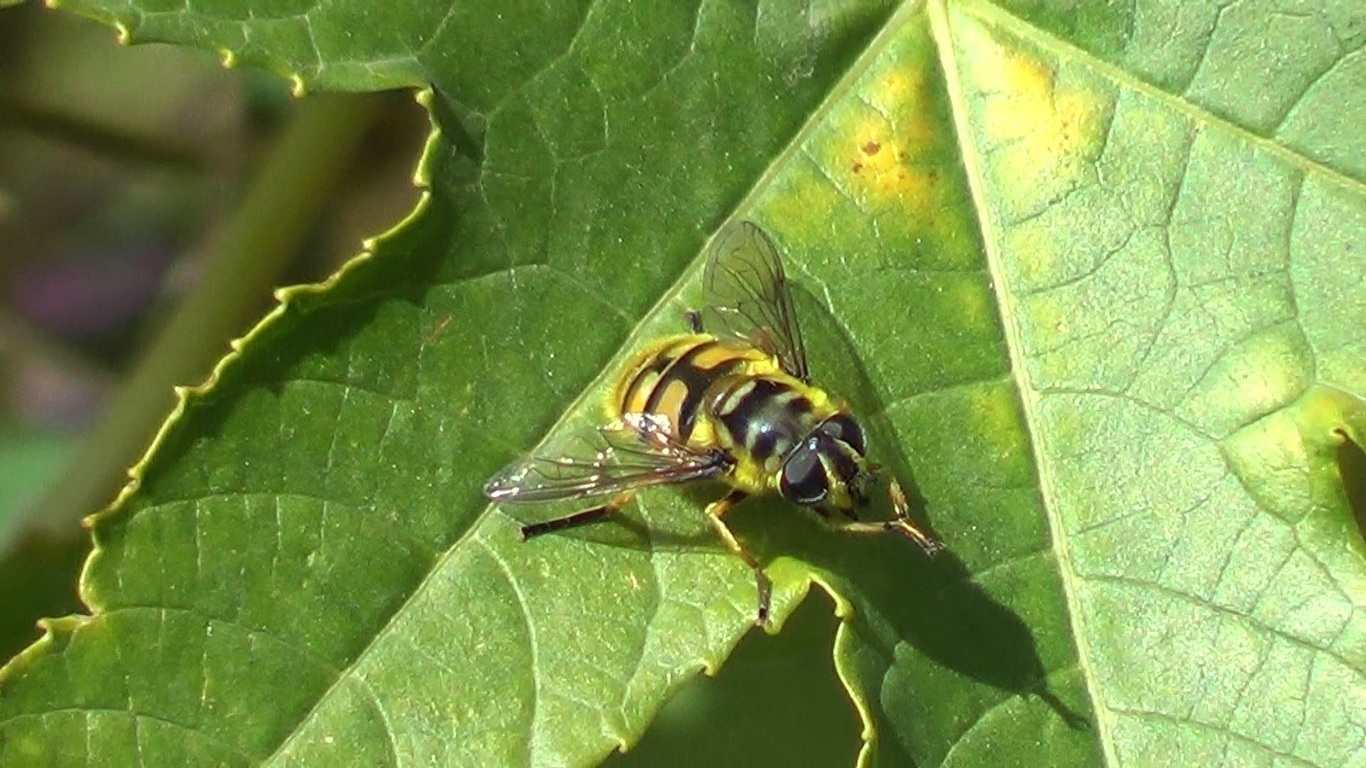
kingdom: Animalia
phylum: Arthropoda
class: Insecta
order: Diptera
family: Syrphidae
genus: Myathropa
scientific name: Myathropa florea
